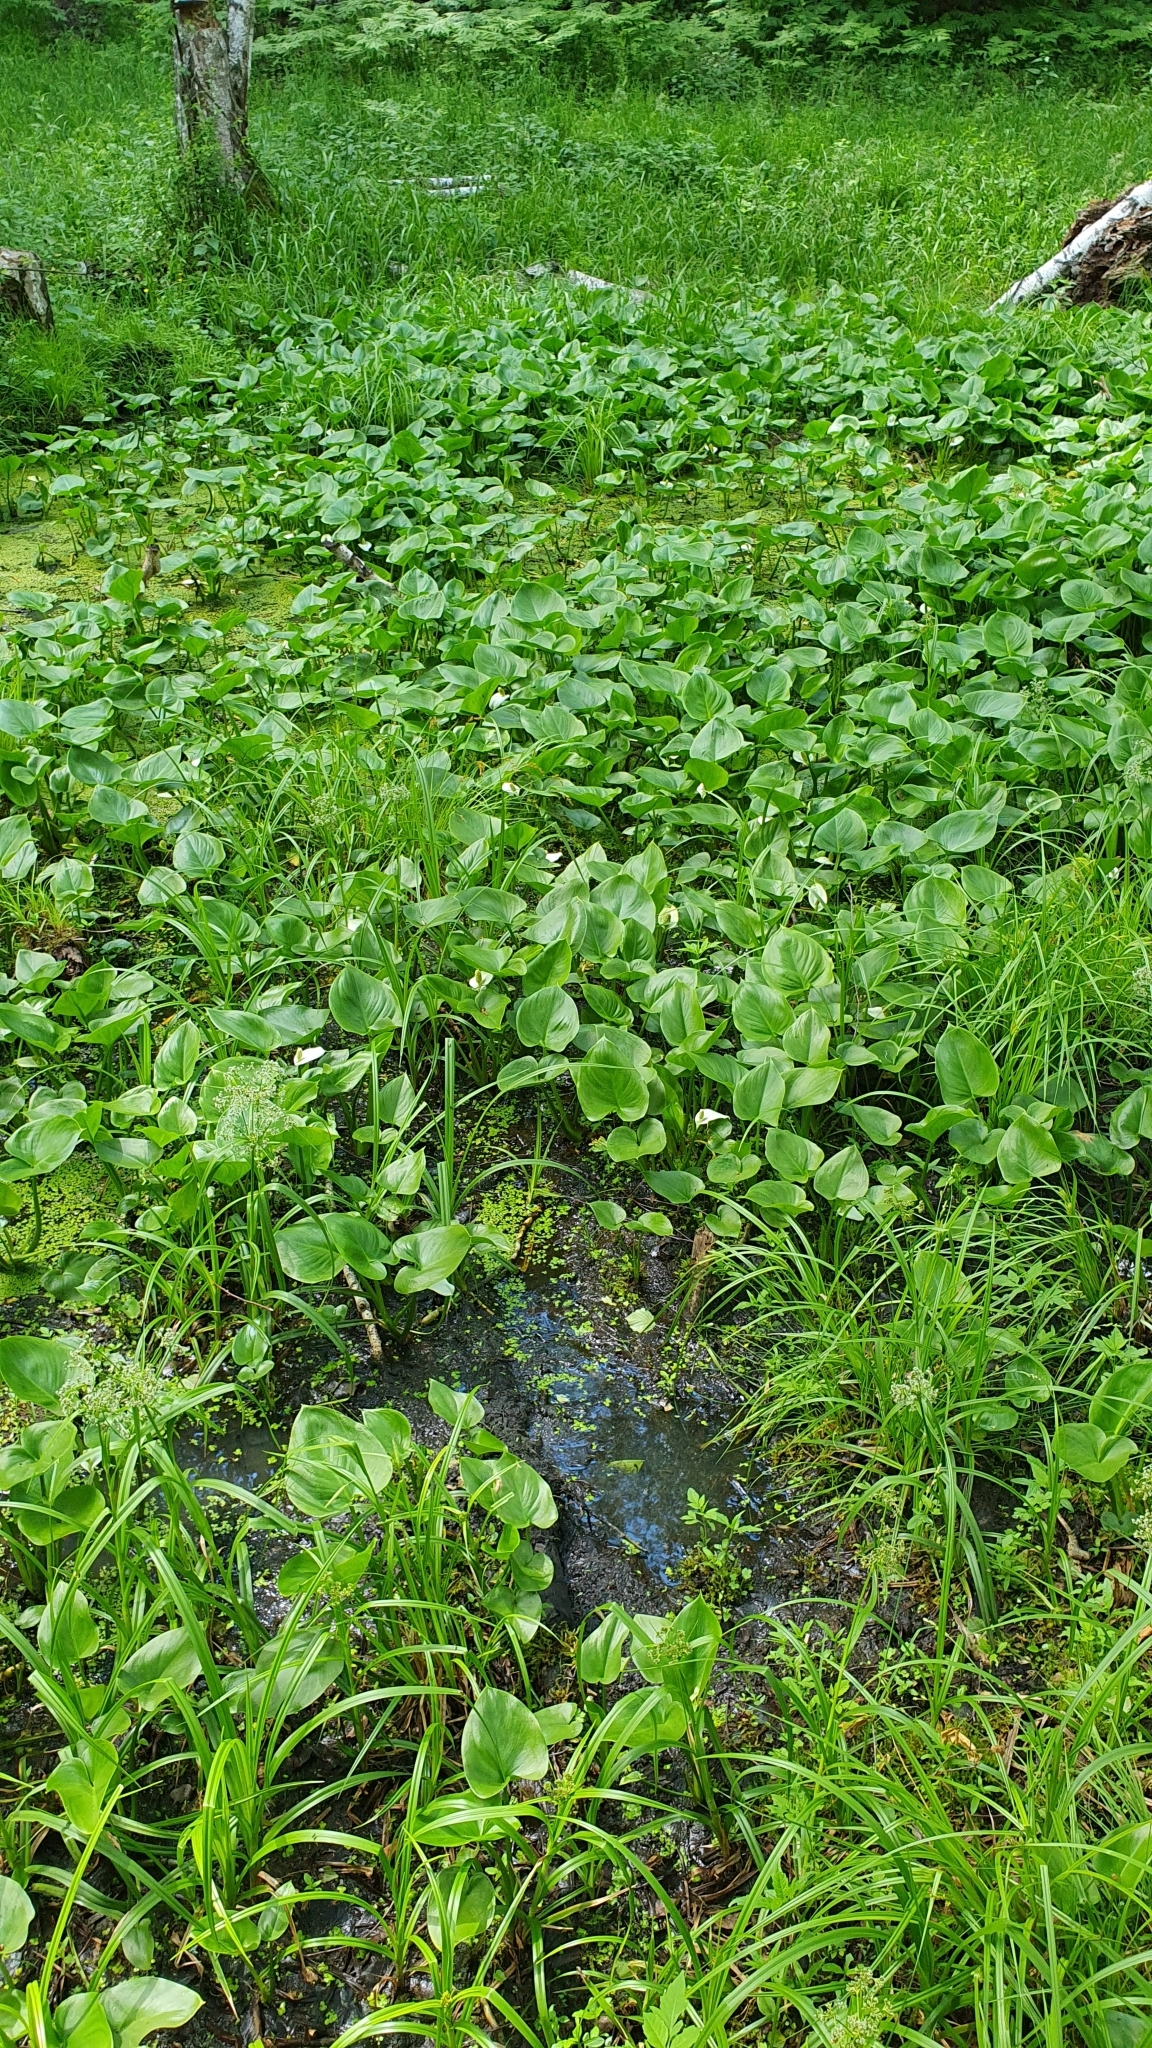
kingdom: Plantae
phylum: Tracheophyta
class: Liliopsida
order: Alismatales
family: Araceae
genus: Calla
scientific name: Calla palustris
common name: Bog arum
